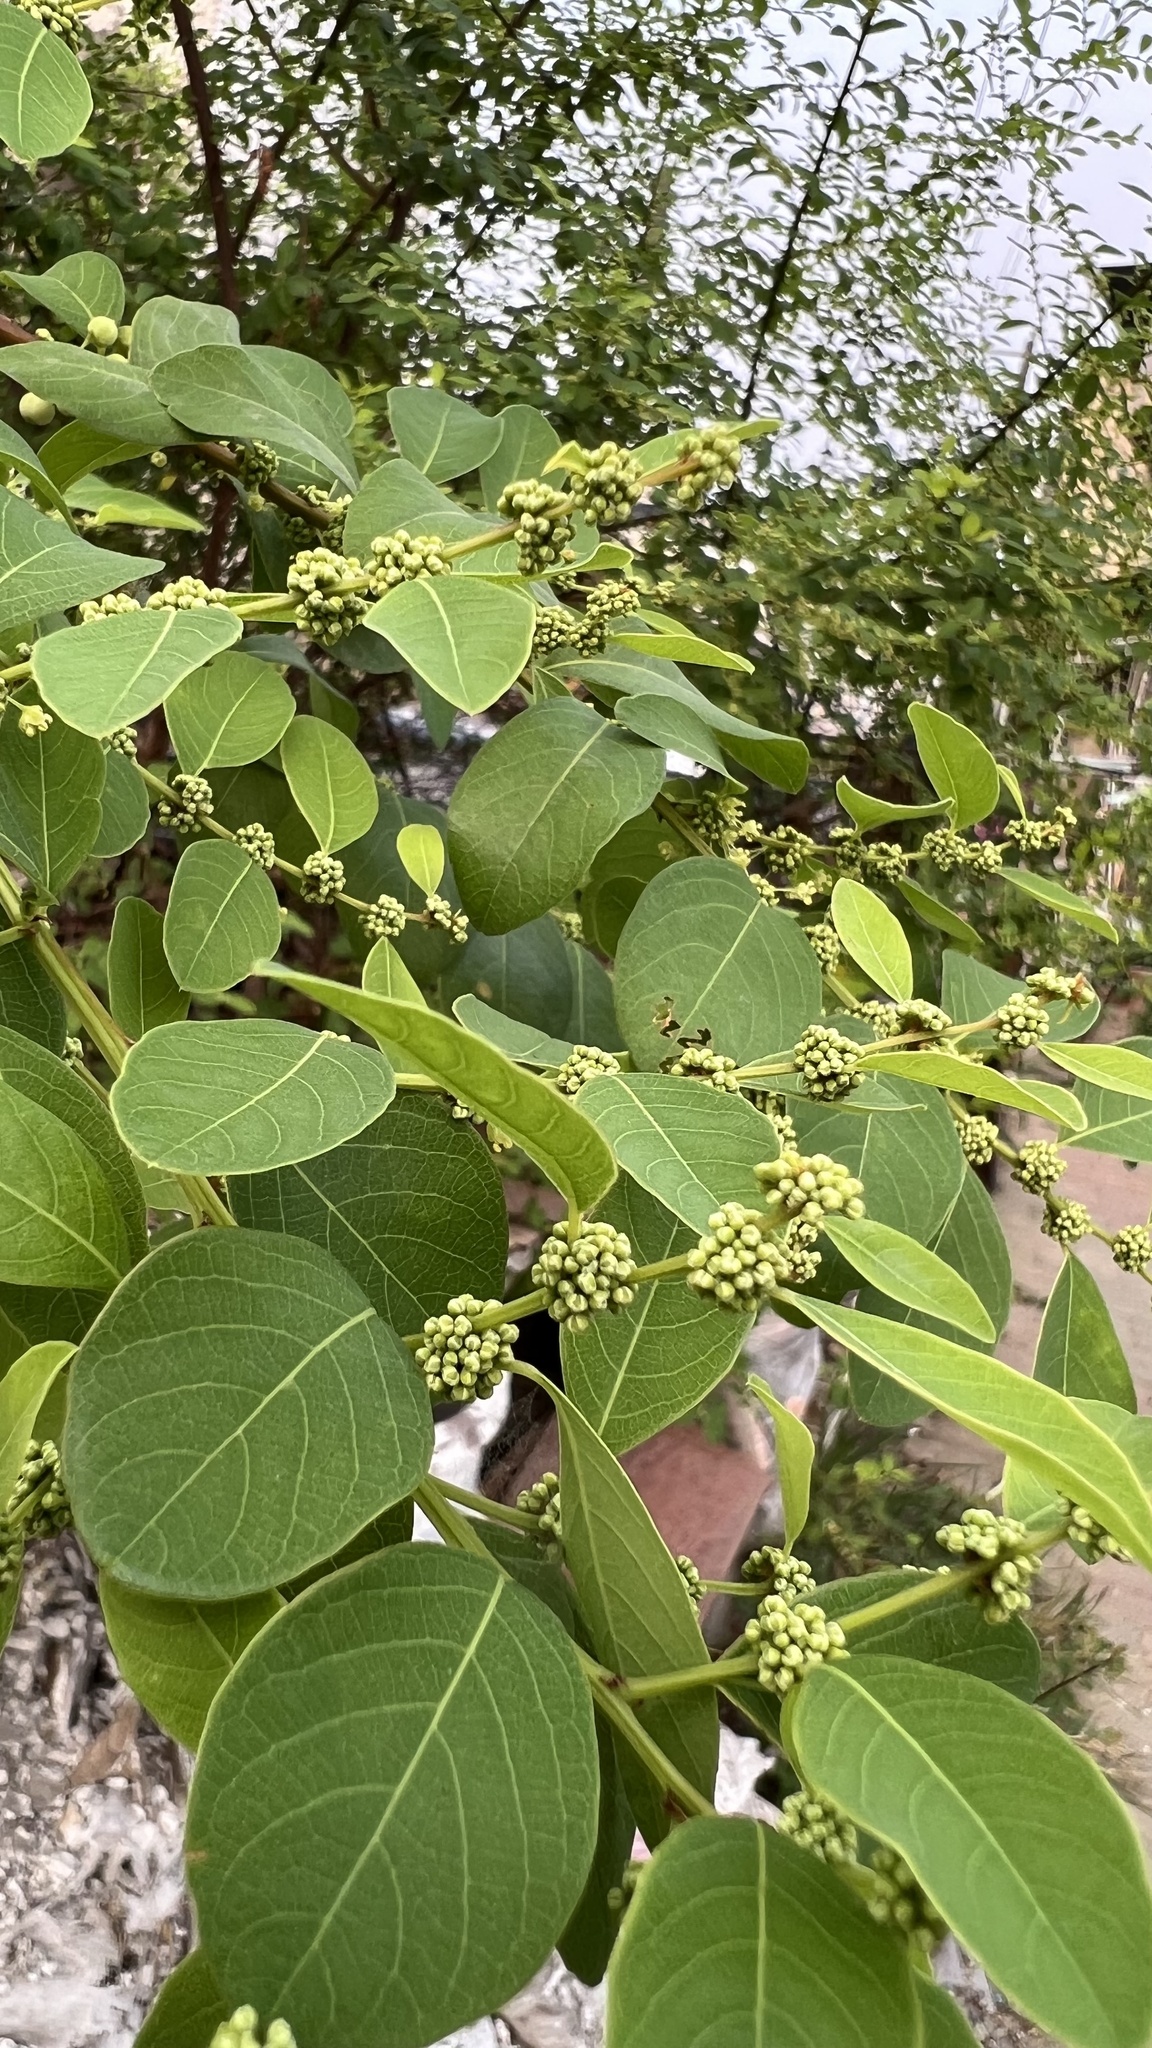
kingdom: Plantae
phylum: Tracheophyta
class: Magnoliopsida
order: Malpighiales
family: Phyllanthaceae
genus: Flueggea
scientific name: Flueggea virosa
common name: Common bushweed
